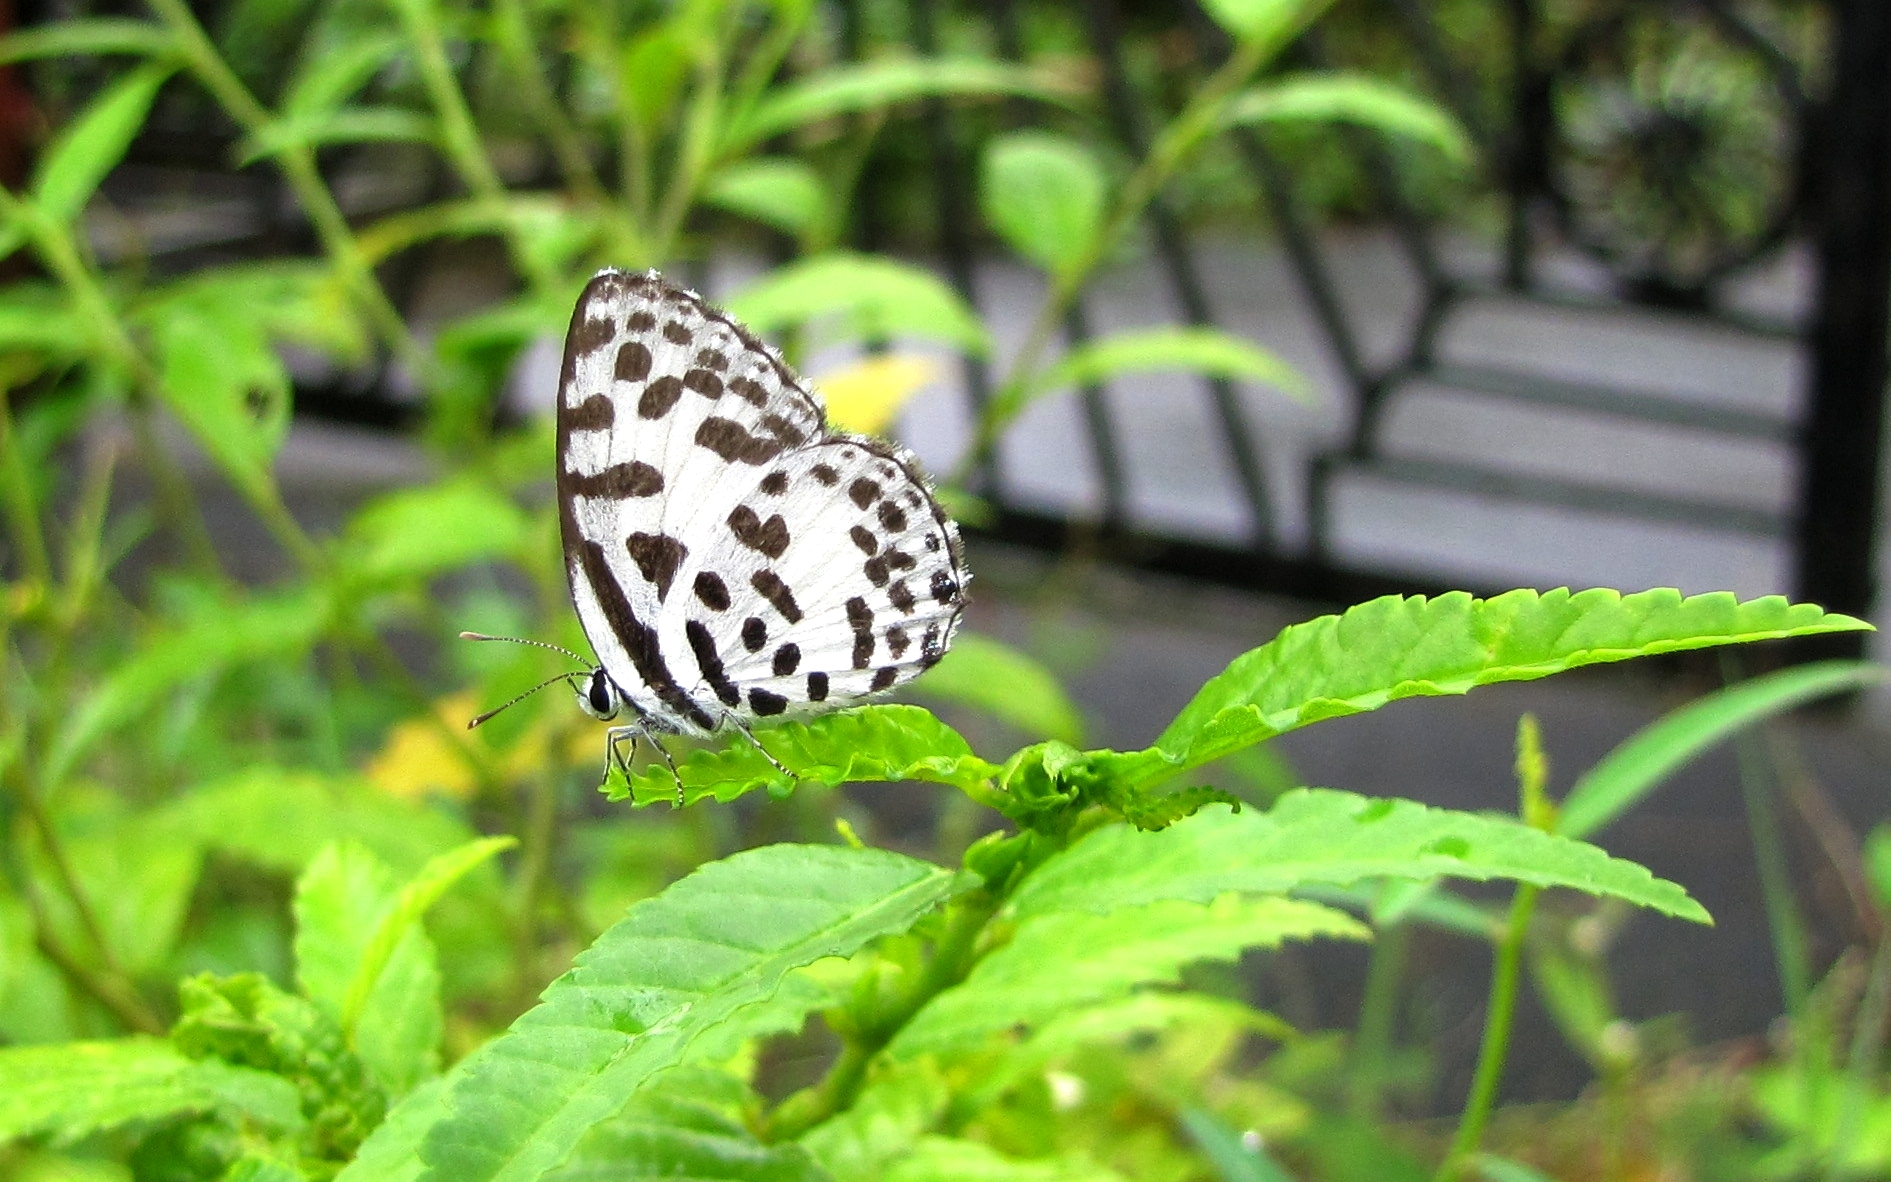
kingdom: Animalia
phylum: Arthropoda
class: Insecta
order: Lepidoptera
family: Lycaenidae
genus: Castalius
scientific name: Castalius rosimon
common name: Common pierrot
